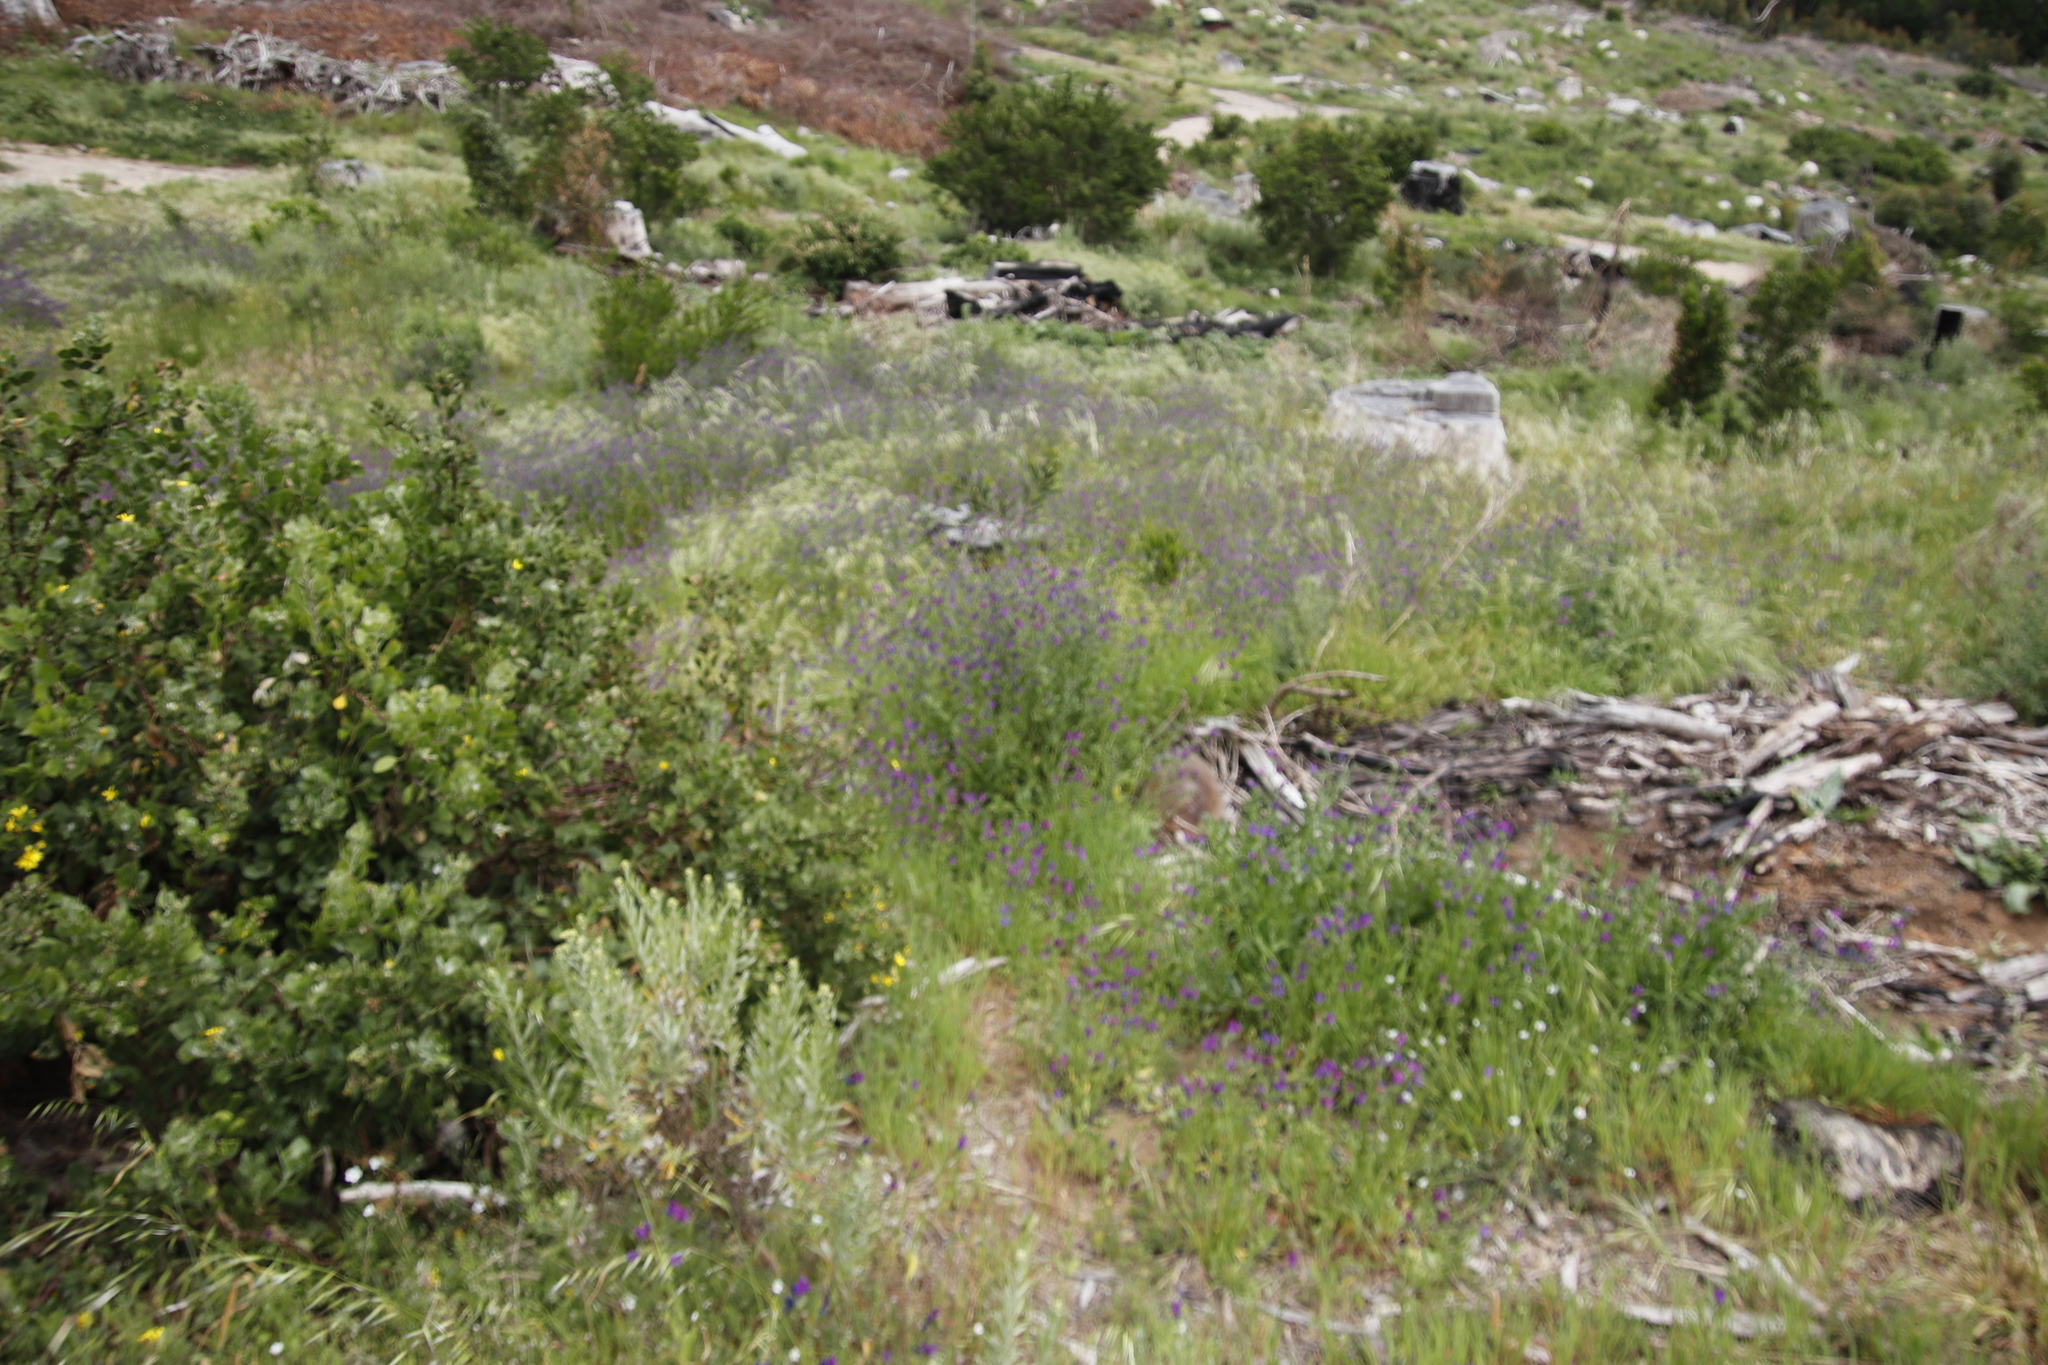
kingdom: Plantae
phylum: Tracheophyta
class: Magnoliopsida
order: Boraginales
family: Boraginaceae
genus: Echium
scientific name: Echium plantagineum
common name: Purple viper's-bugloss
